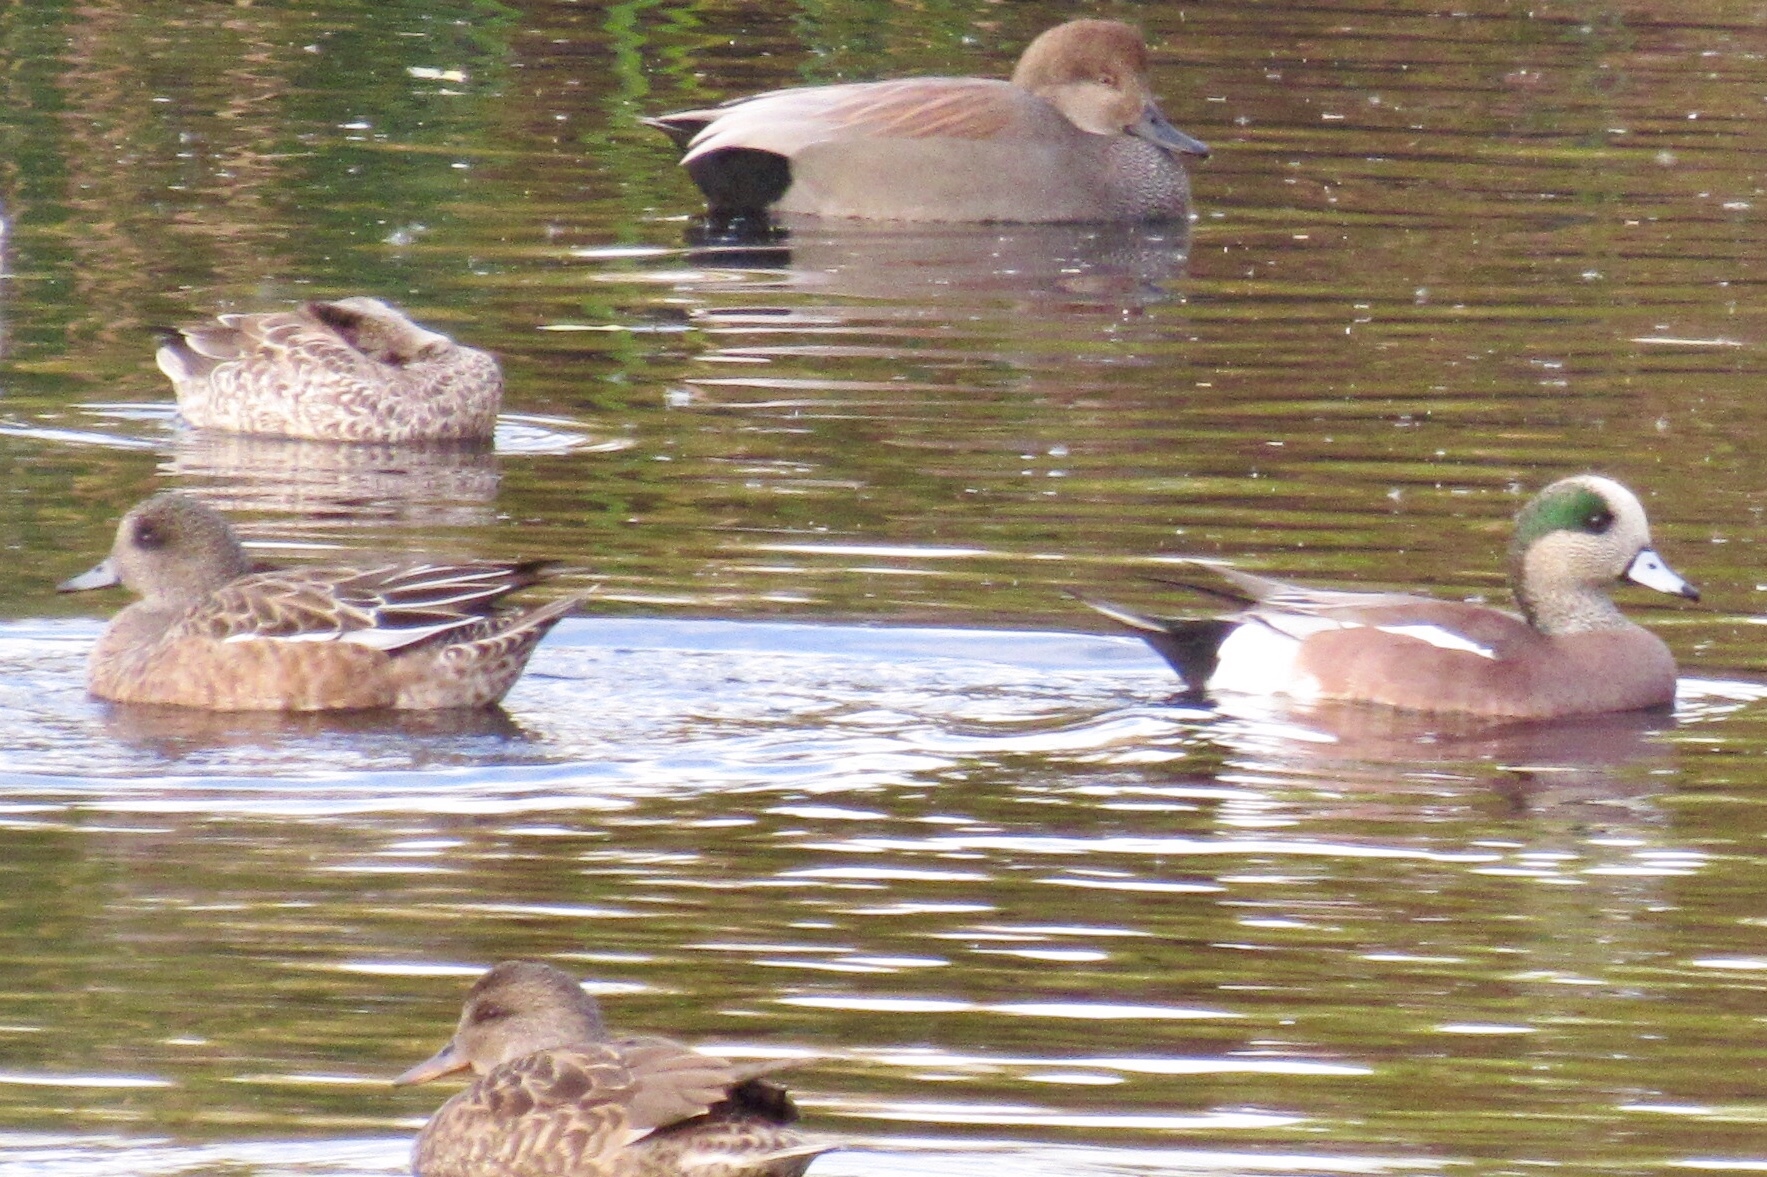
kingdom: Animalia
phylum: Chordata
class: Aves
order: Anseriformes
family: Anatidae
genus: Mareca
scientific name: Mareca americana
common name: American wigeon
